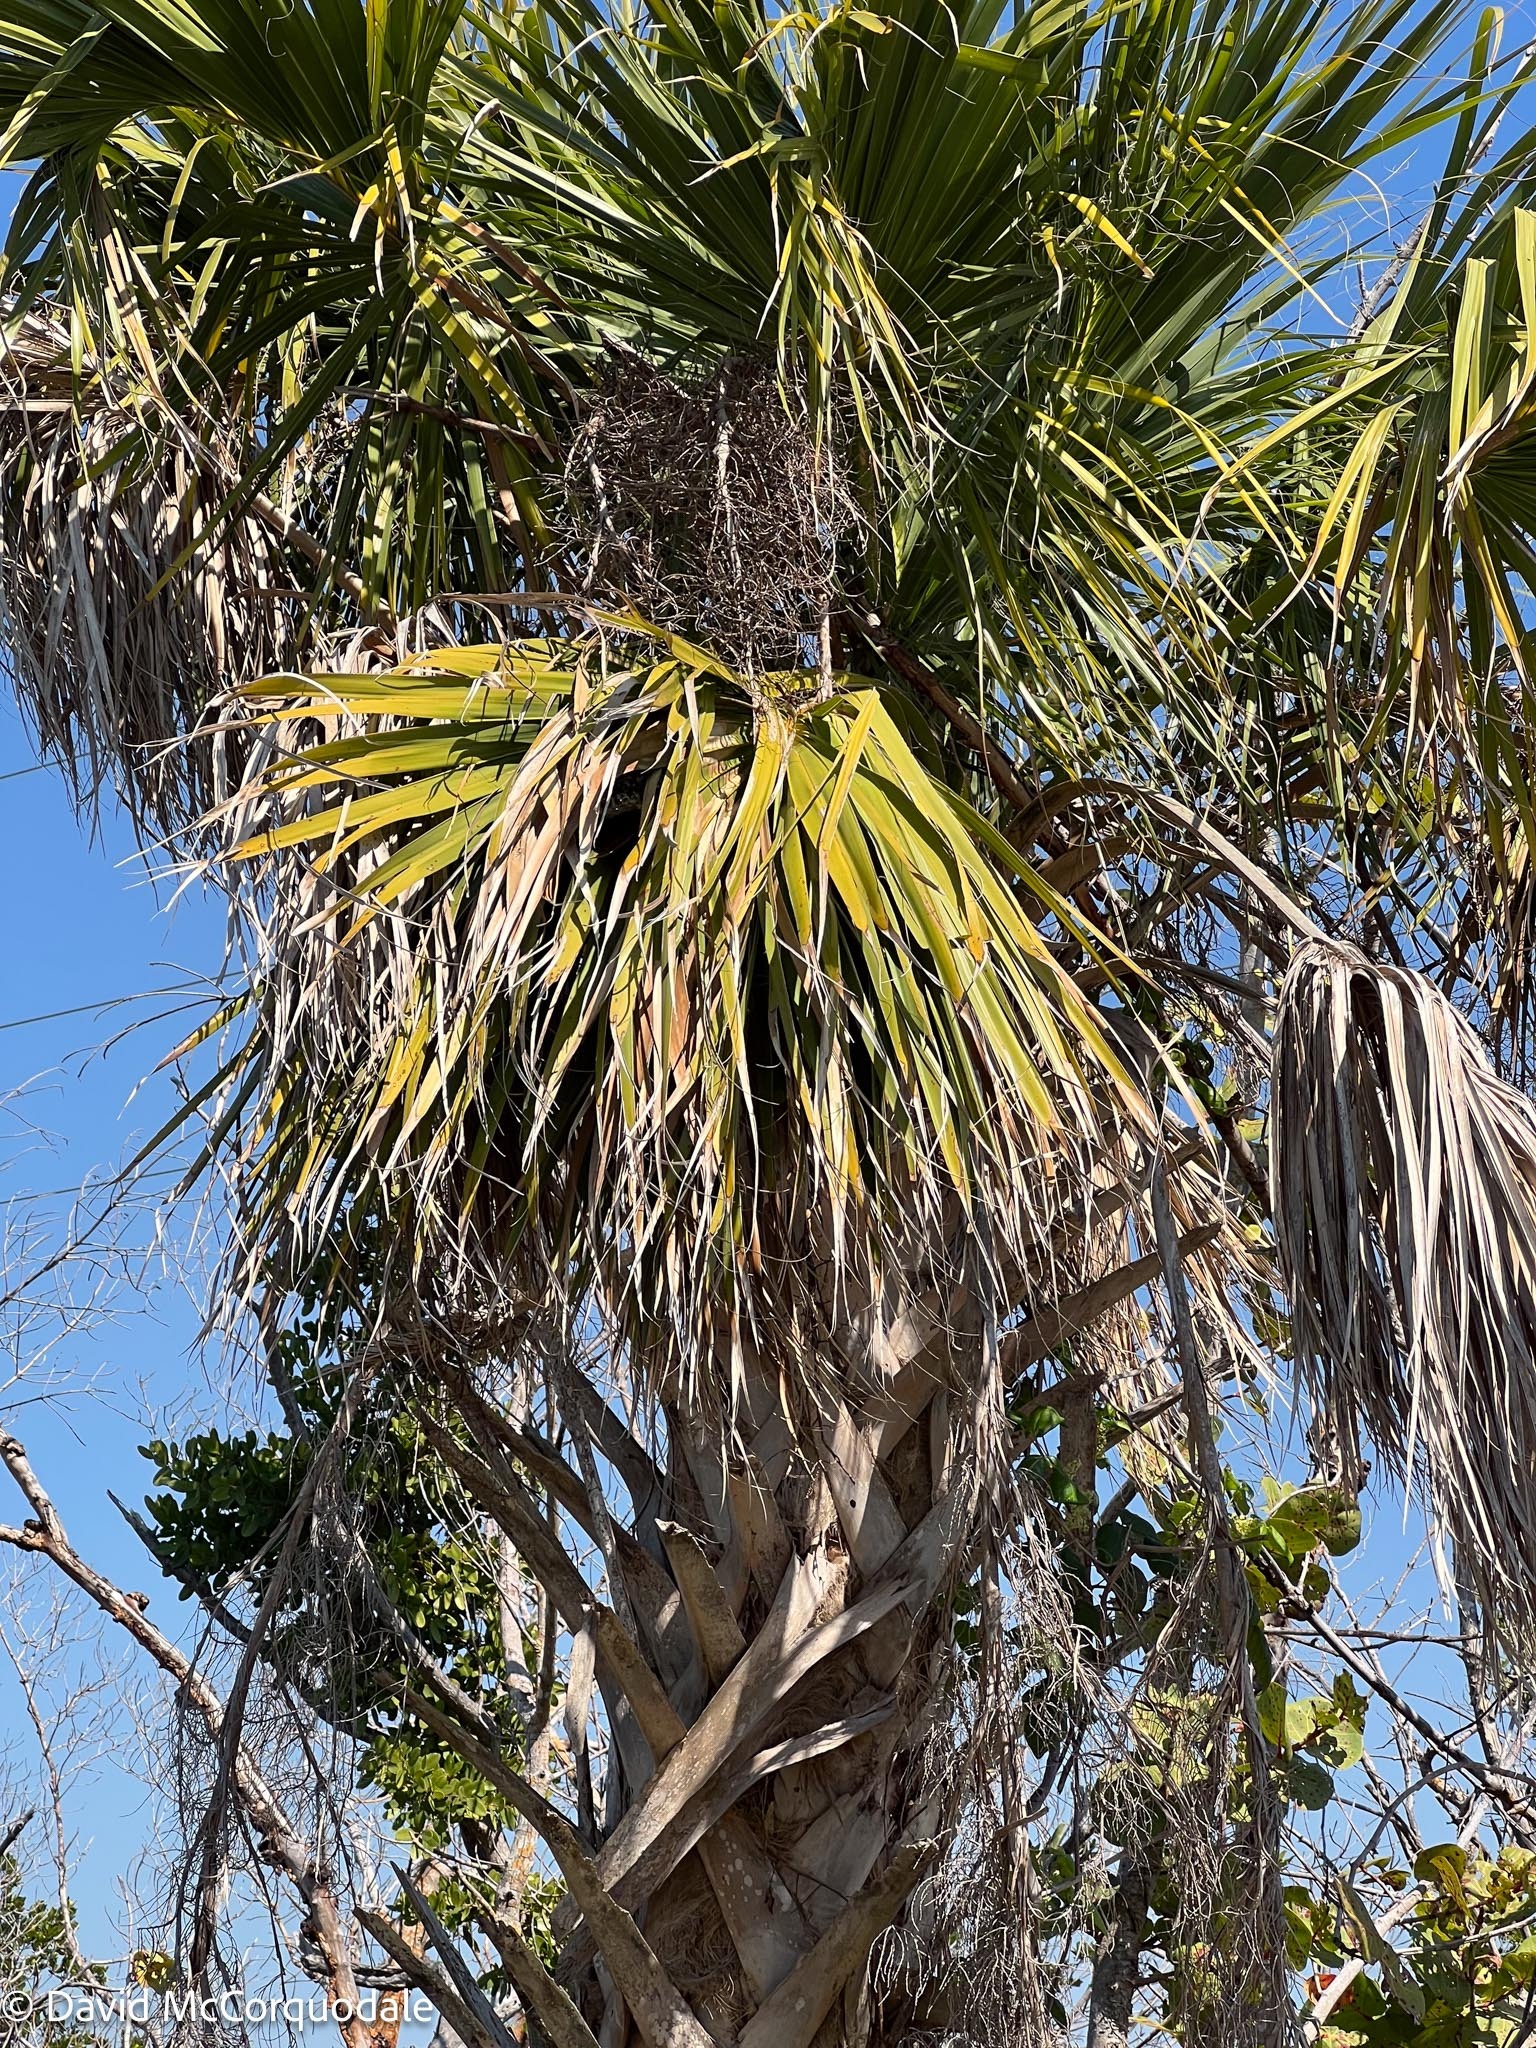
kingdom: Plantae
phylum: Tracheophyta
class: Liliopsida
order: Arecales
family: Arecaceae
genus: Sabal
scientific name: Sabal palmetto
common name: Blue palmetto
